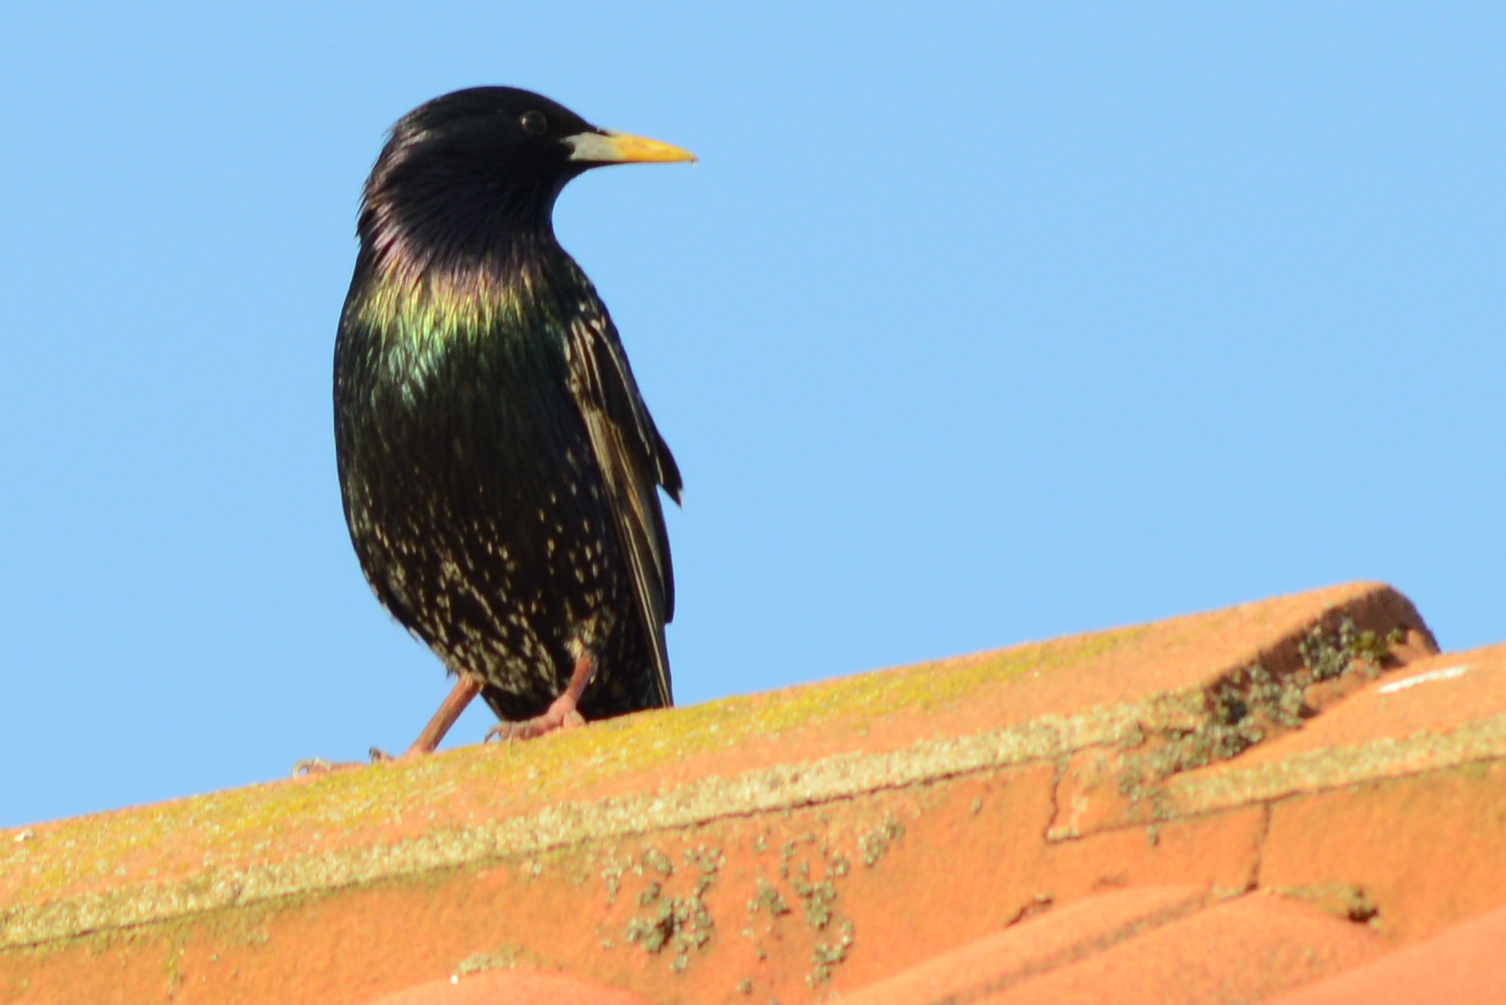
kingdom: Animalia
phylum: Chordata
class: Aves
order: Passeriformes
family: Sturnidae
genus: Sturnus
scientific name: Sturnus vulgaris
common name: Common starling
